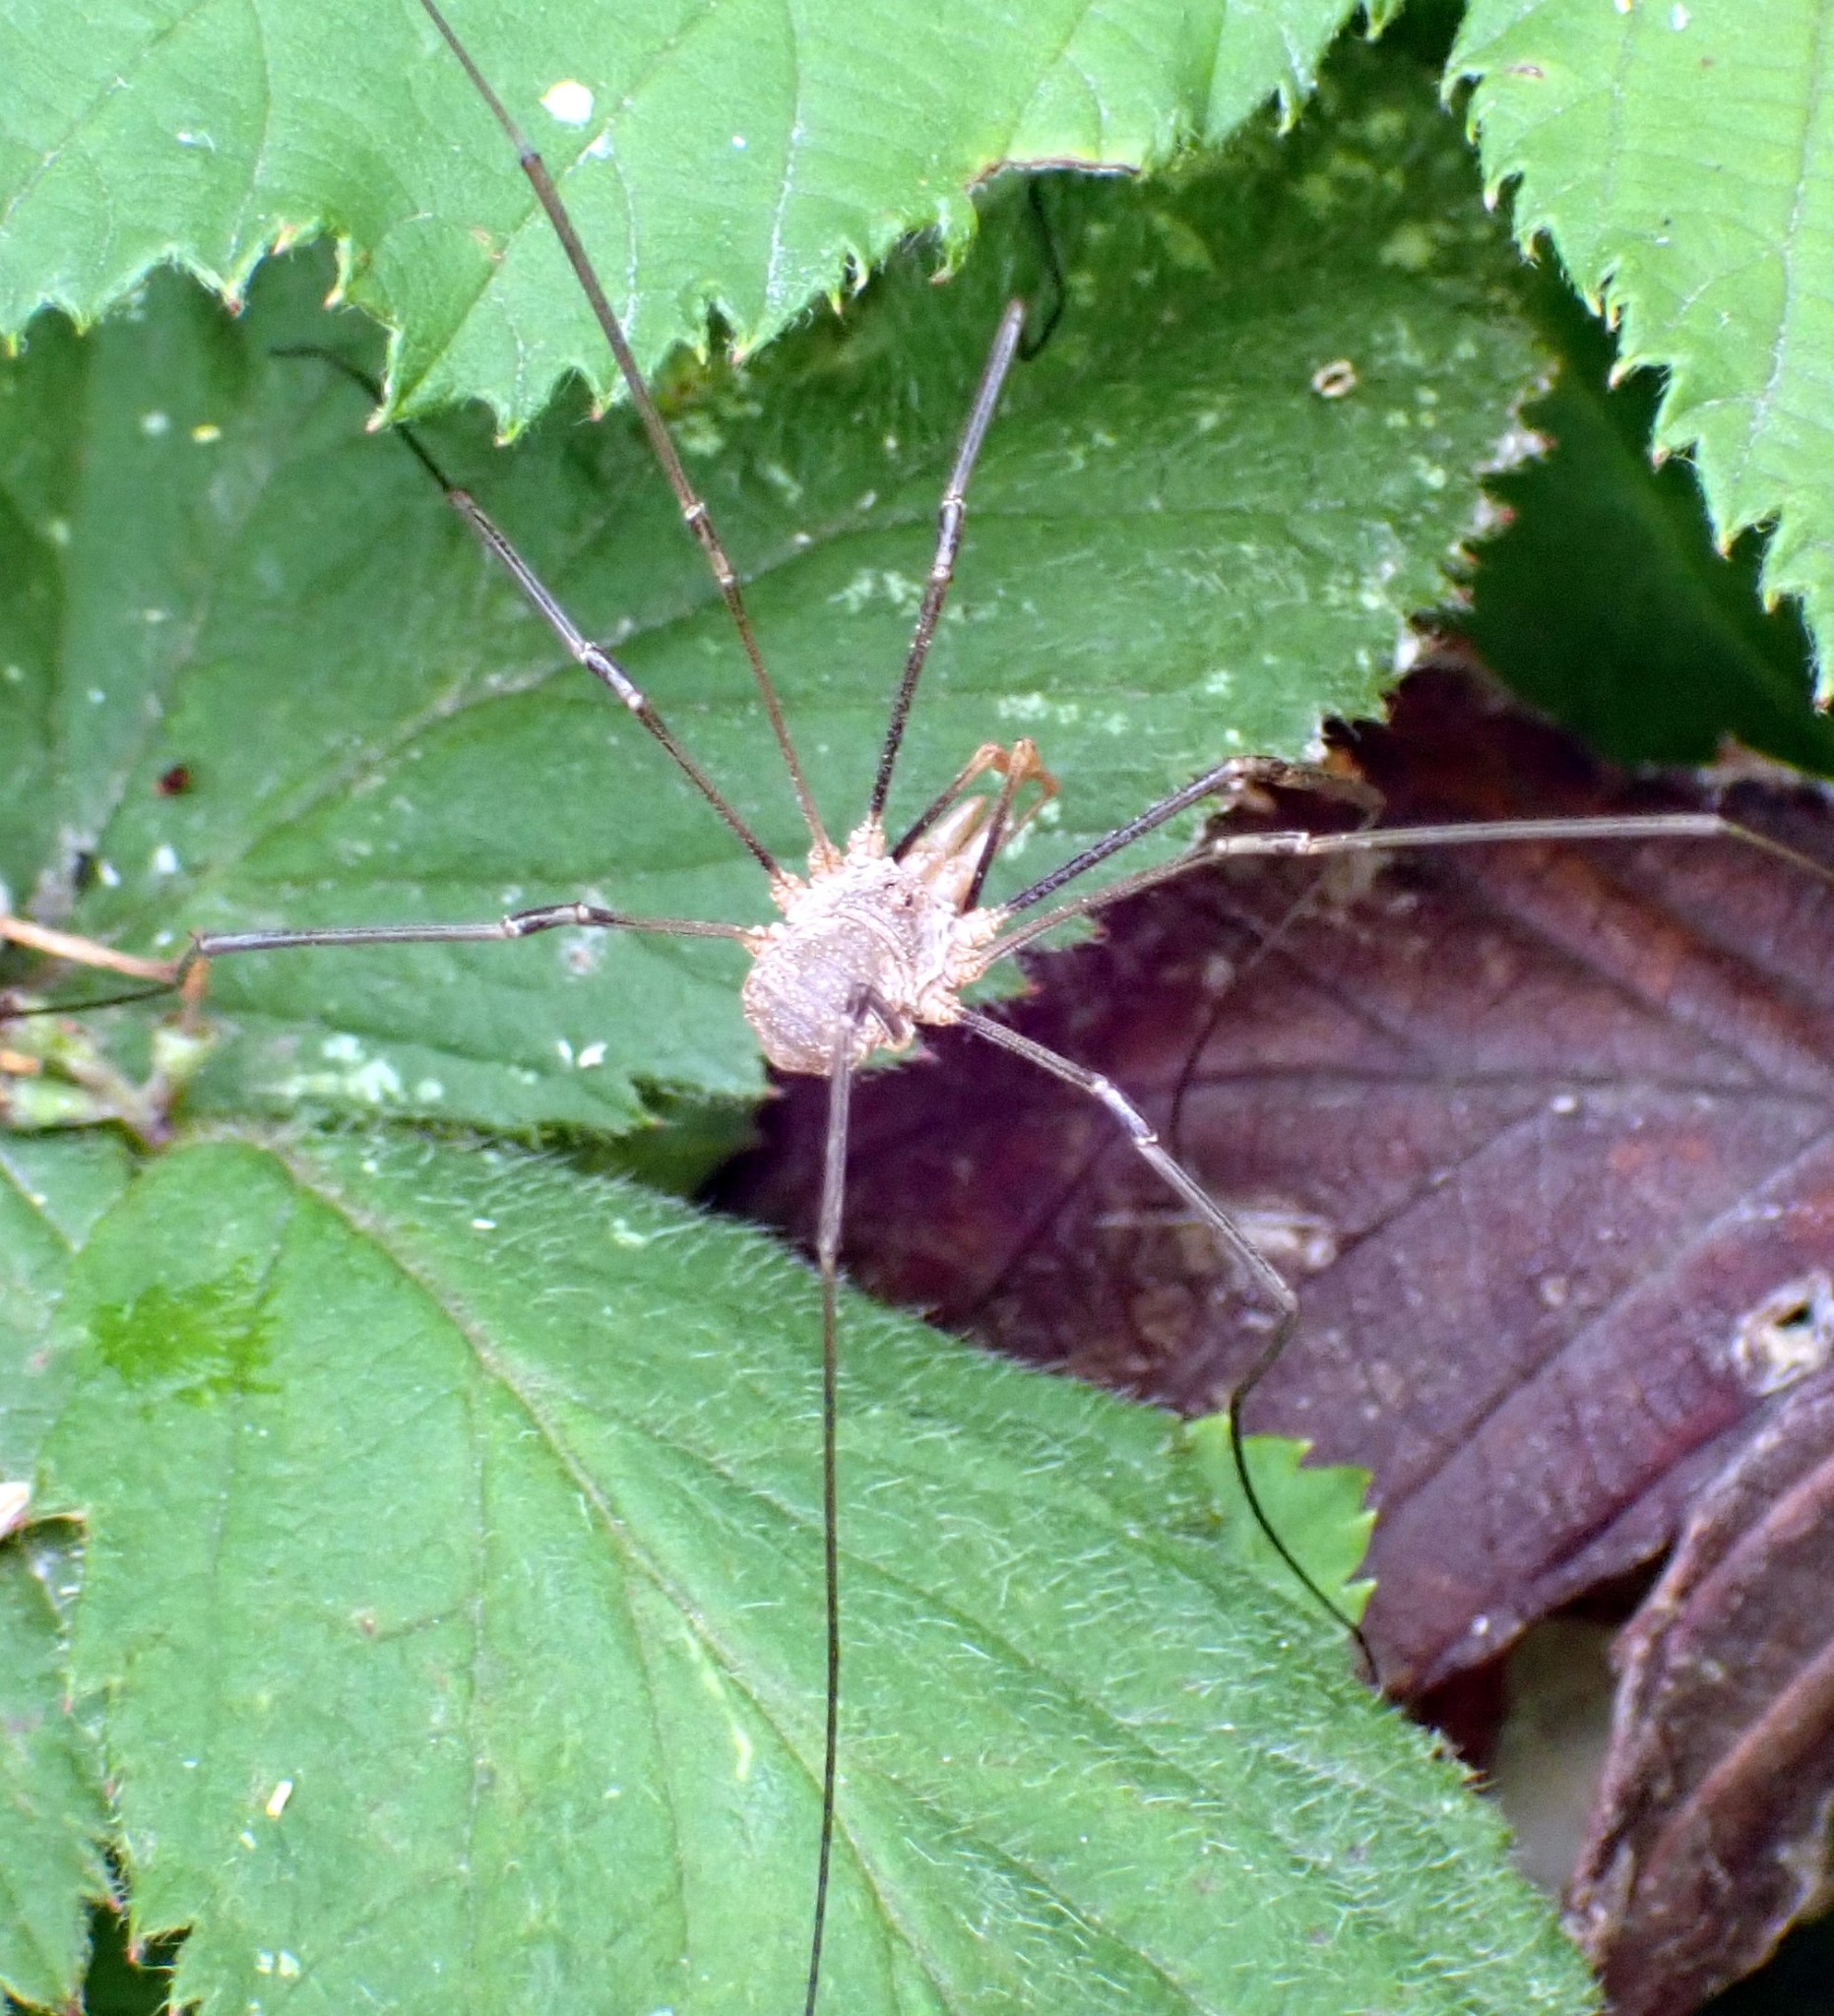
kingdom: Animalia
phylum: Arthropoda
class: Arachnida
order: Opiliones
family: Phalangiidae
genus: Phalangium
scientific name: Phalangium opilio
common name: Daddy longleg
